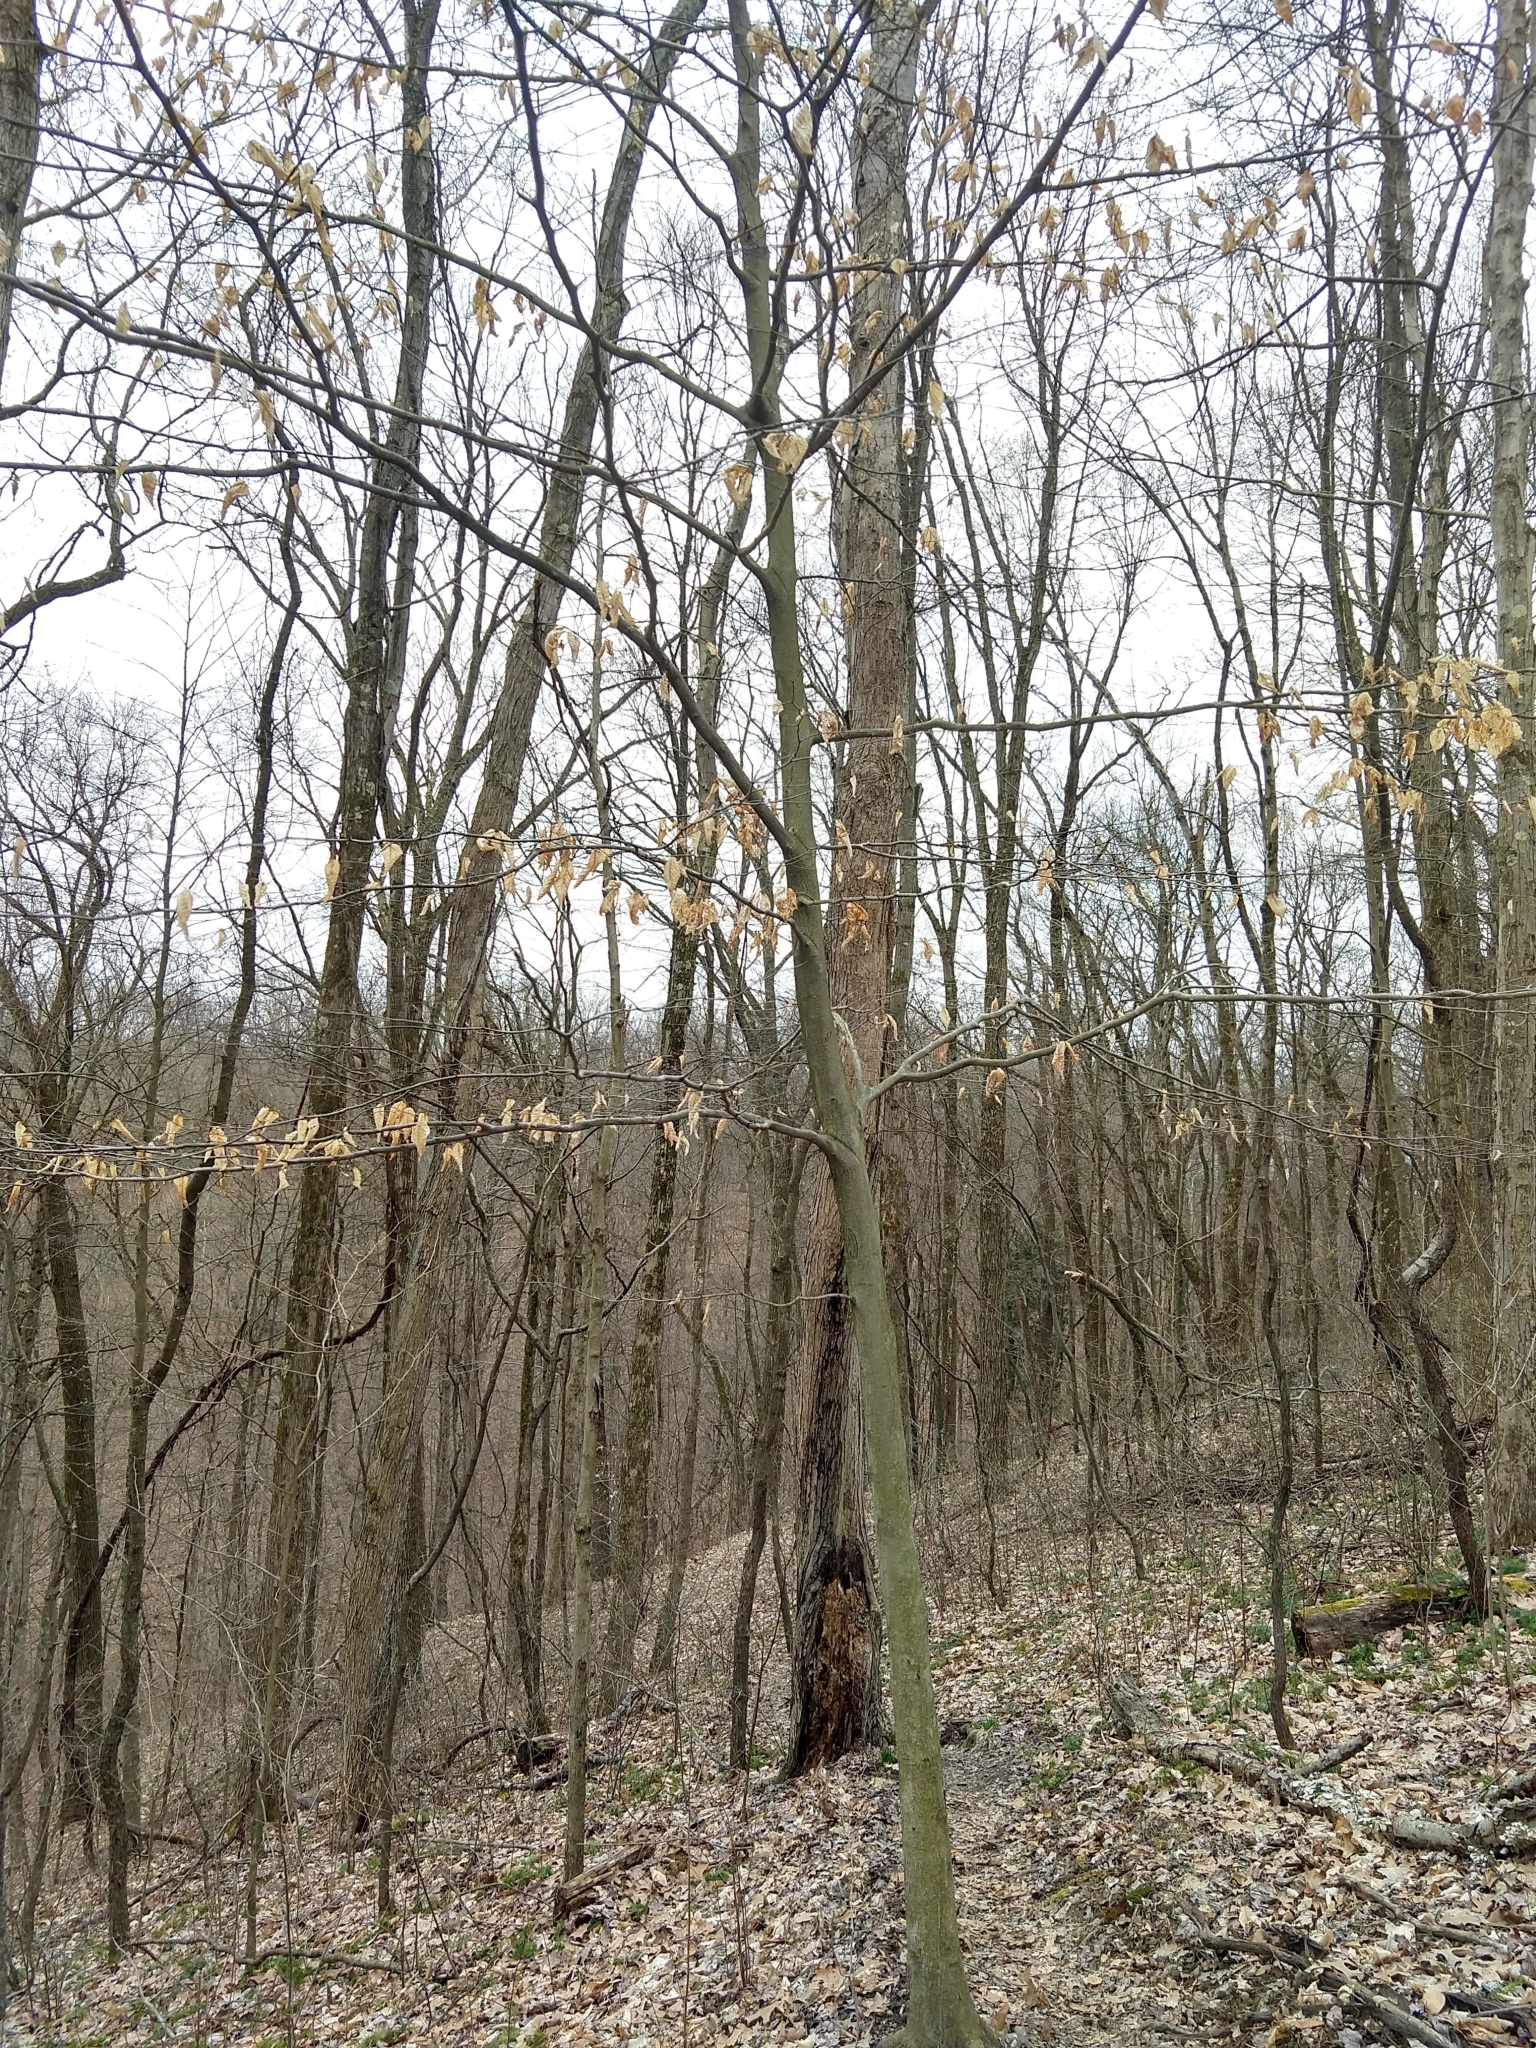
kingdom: Plantae
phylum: Tracheophyta
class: Magnoliopsida
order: Fagales
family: Fagaceae
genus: Fagus
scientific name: Fagus grandifolia
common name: American beech
